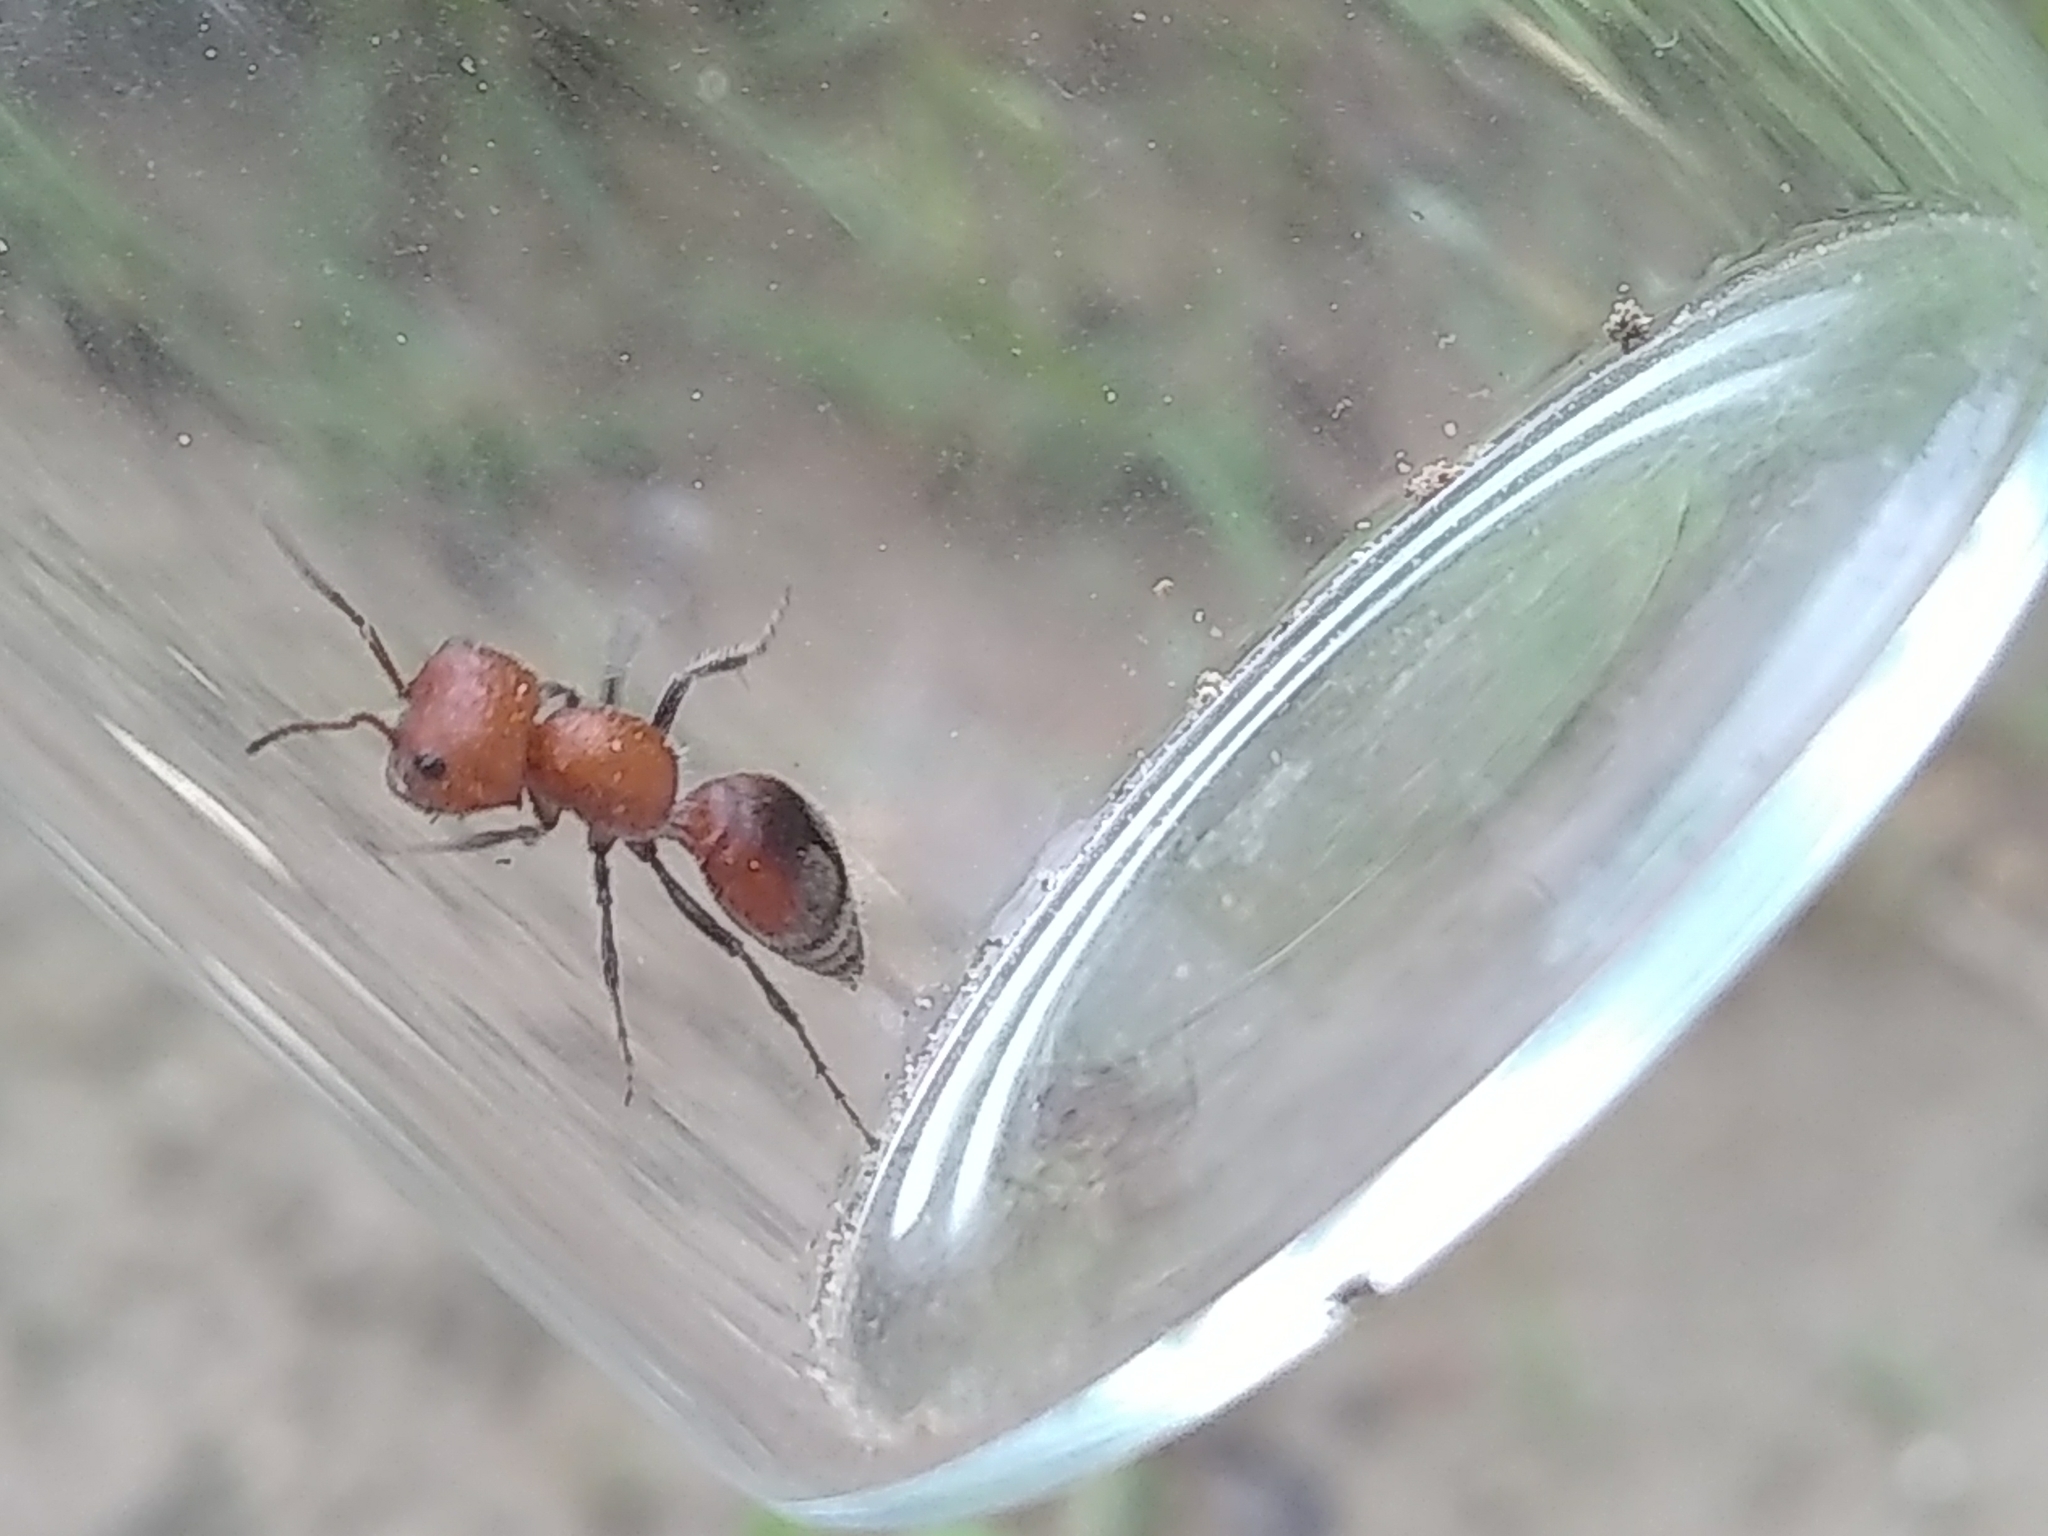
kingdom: Animalia
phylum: Arthropoda
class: Insecta
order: Hymenoptera
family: Mutillidae
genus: Myrmilloides
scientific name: Myrmilloides
